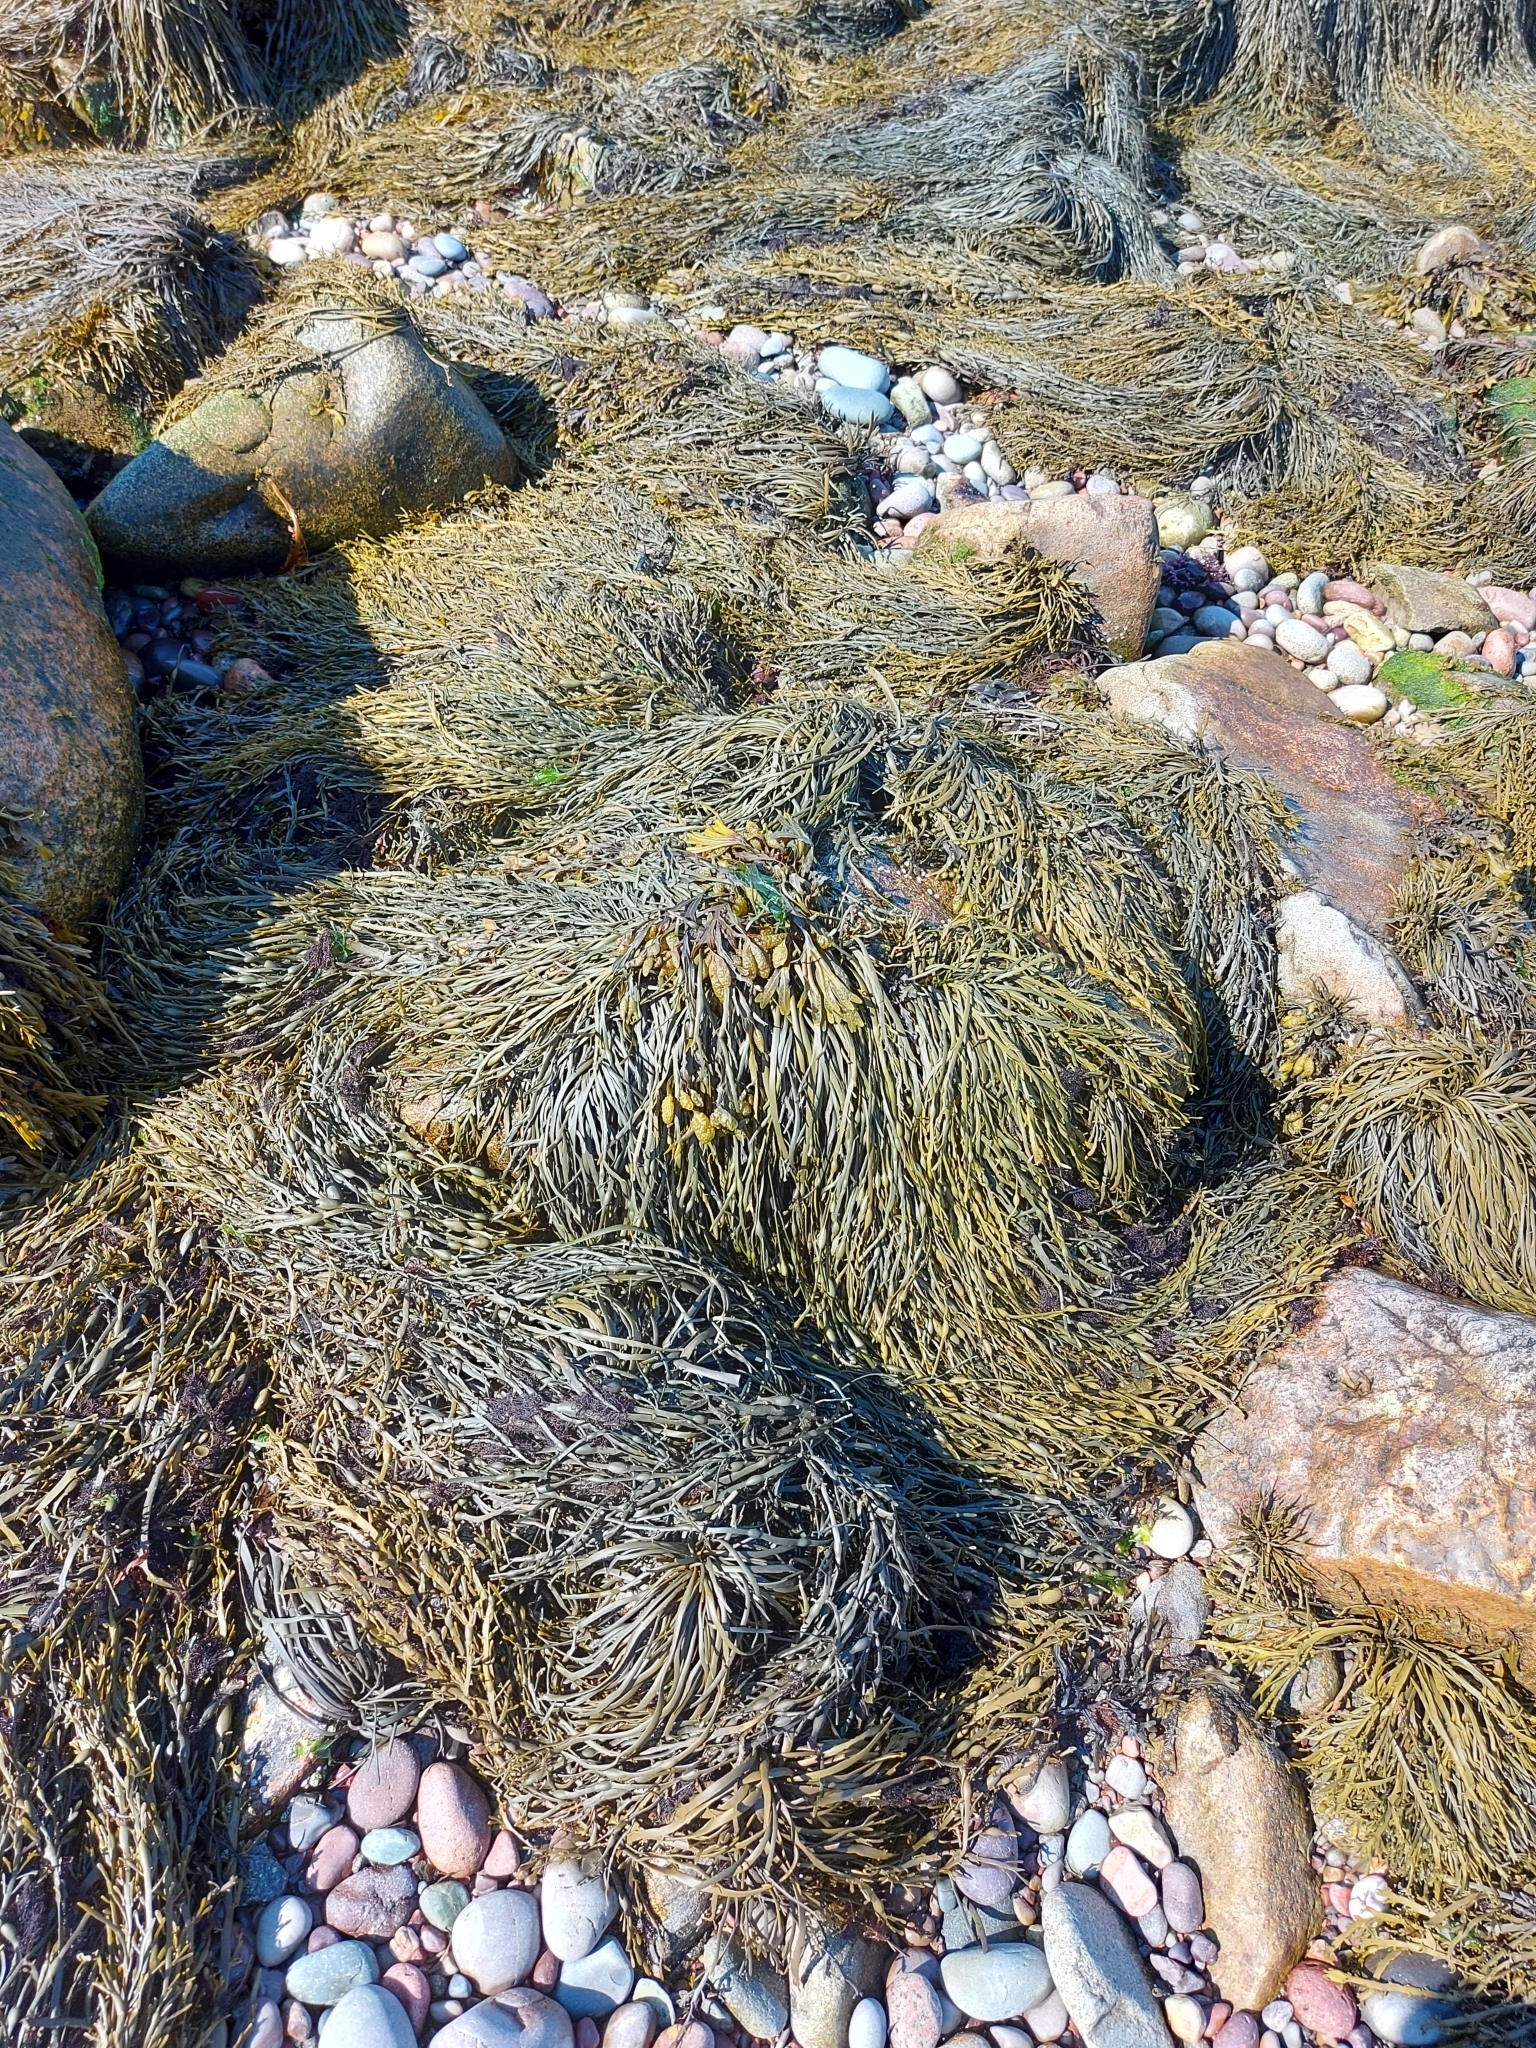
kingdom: Chromista
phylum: Ochrophyta
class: Phaeophyceae
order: Fucales
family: Fucaceae
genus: Ascophyllum
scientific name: Ascophyllum nodosum
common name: Knotted wrack
